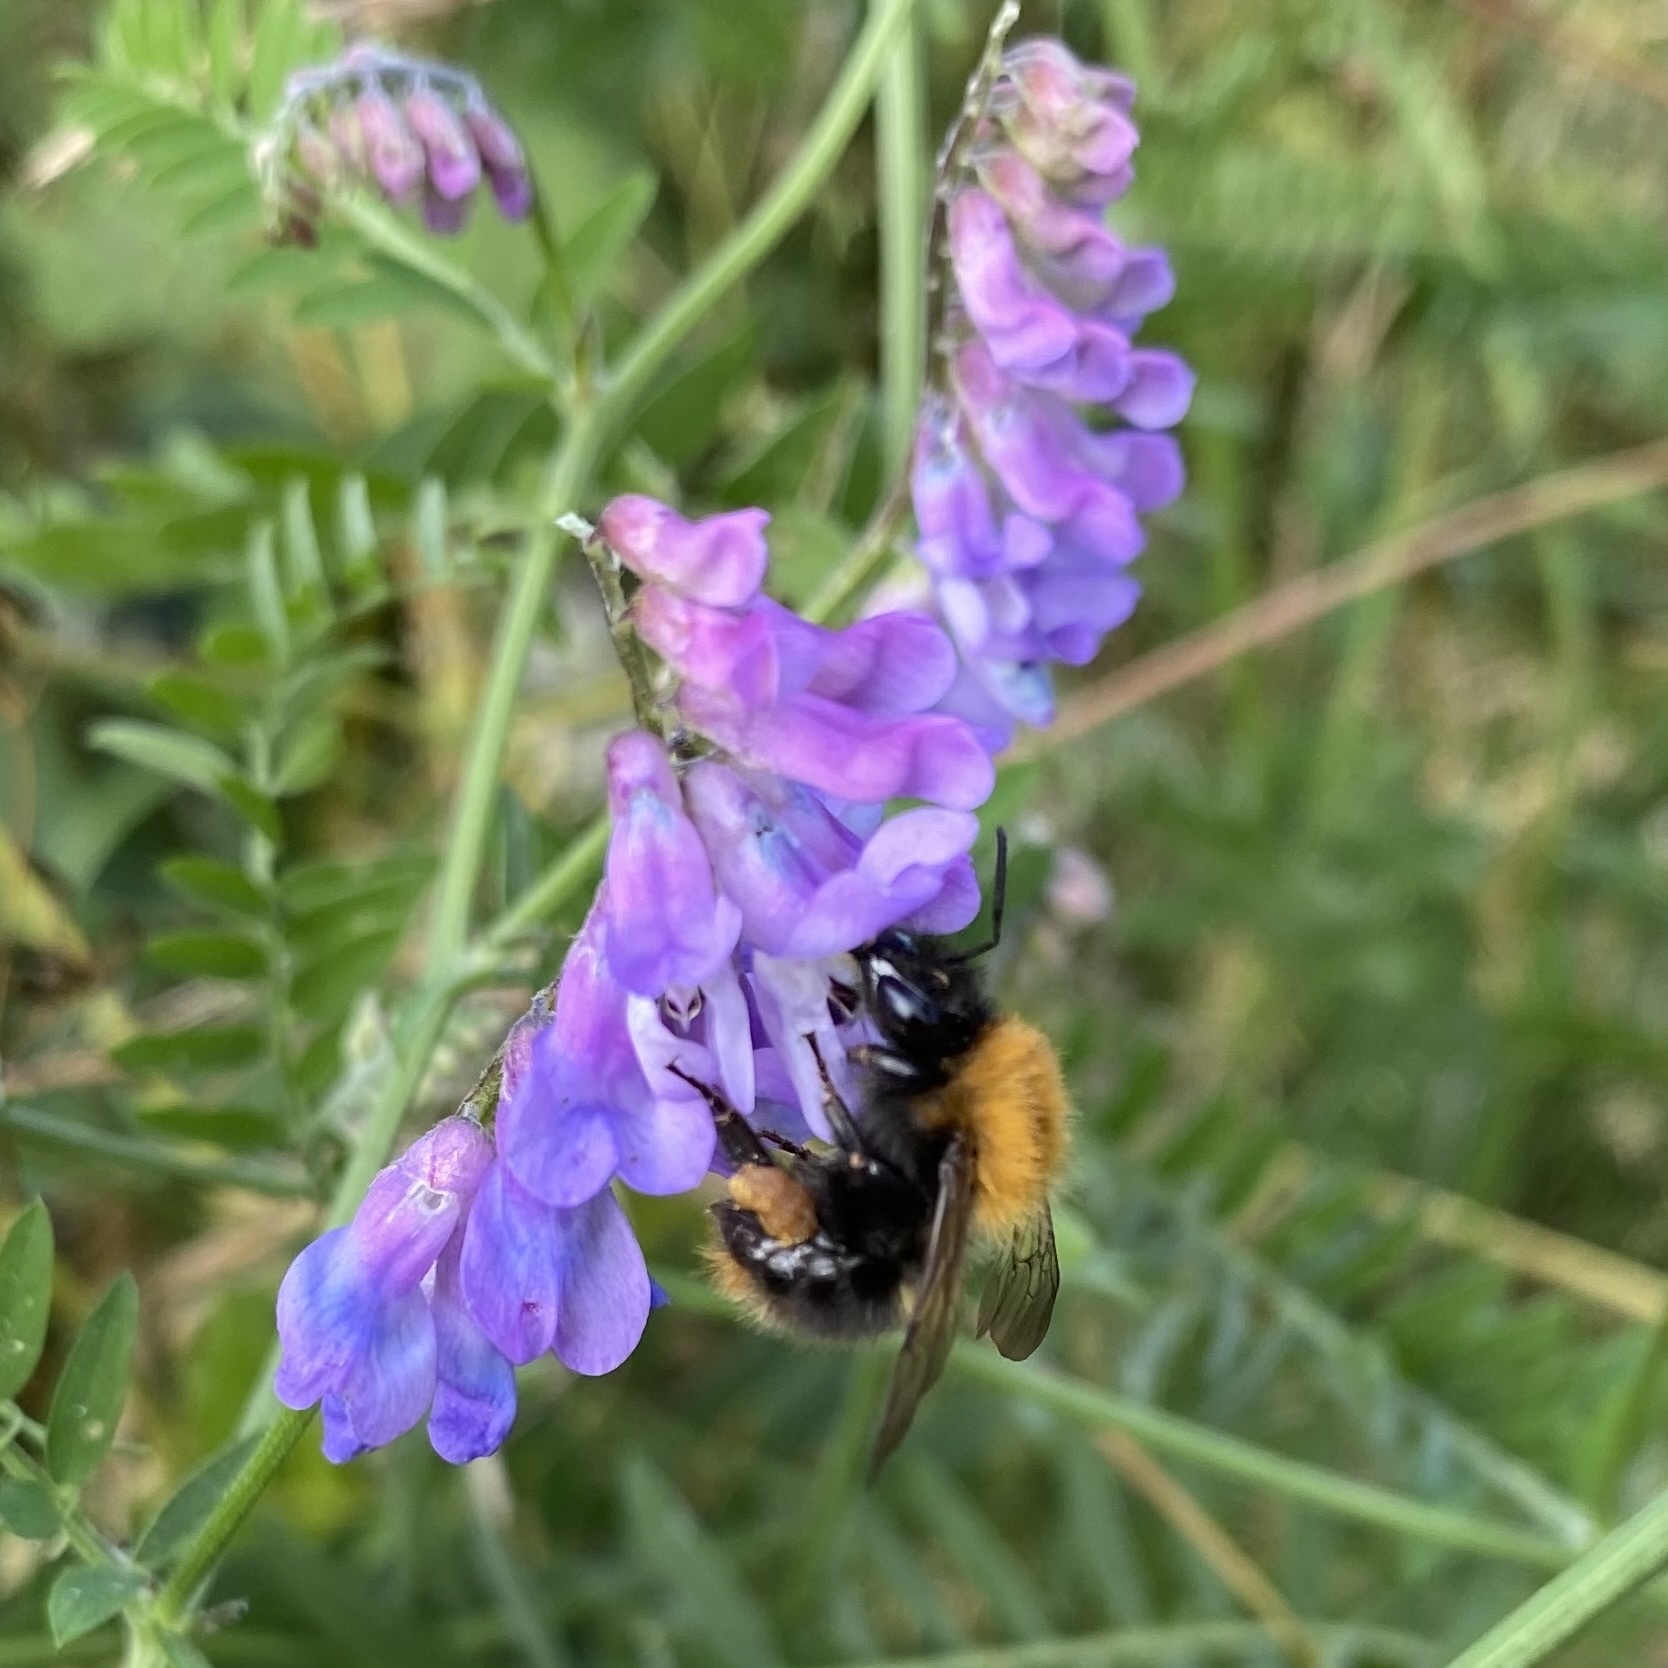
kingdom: Animalia
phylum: Arthropoda
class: Insecta
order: Hymenoptera
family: Apidae
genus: Bombus
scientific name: Bombus pascuorum
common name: Common carder bee
